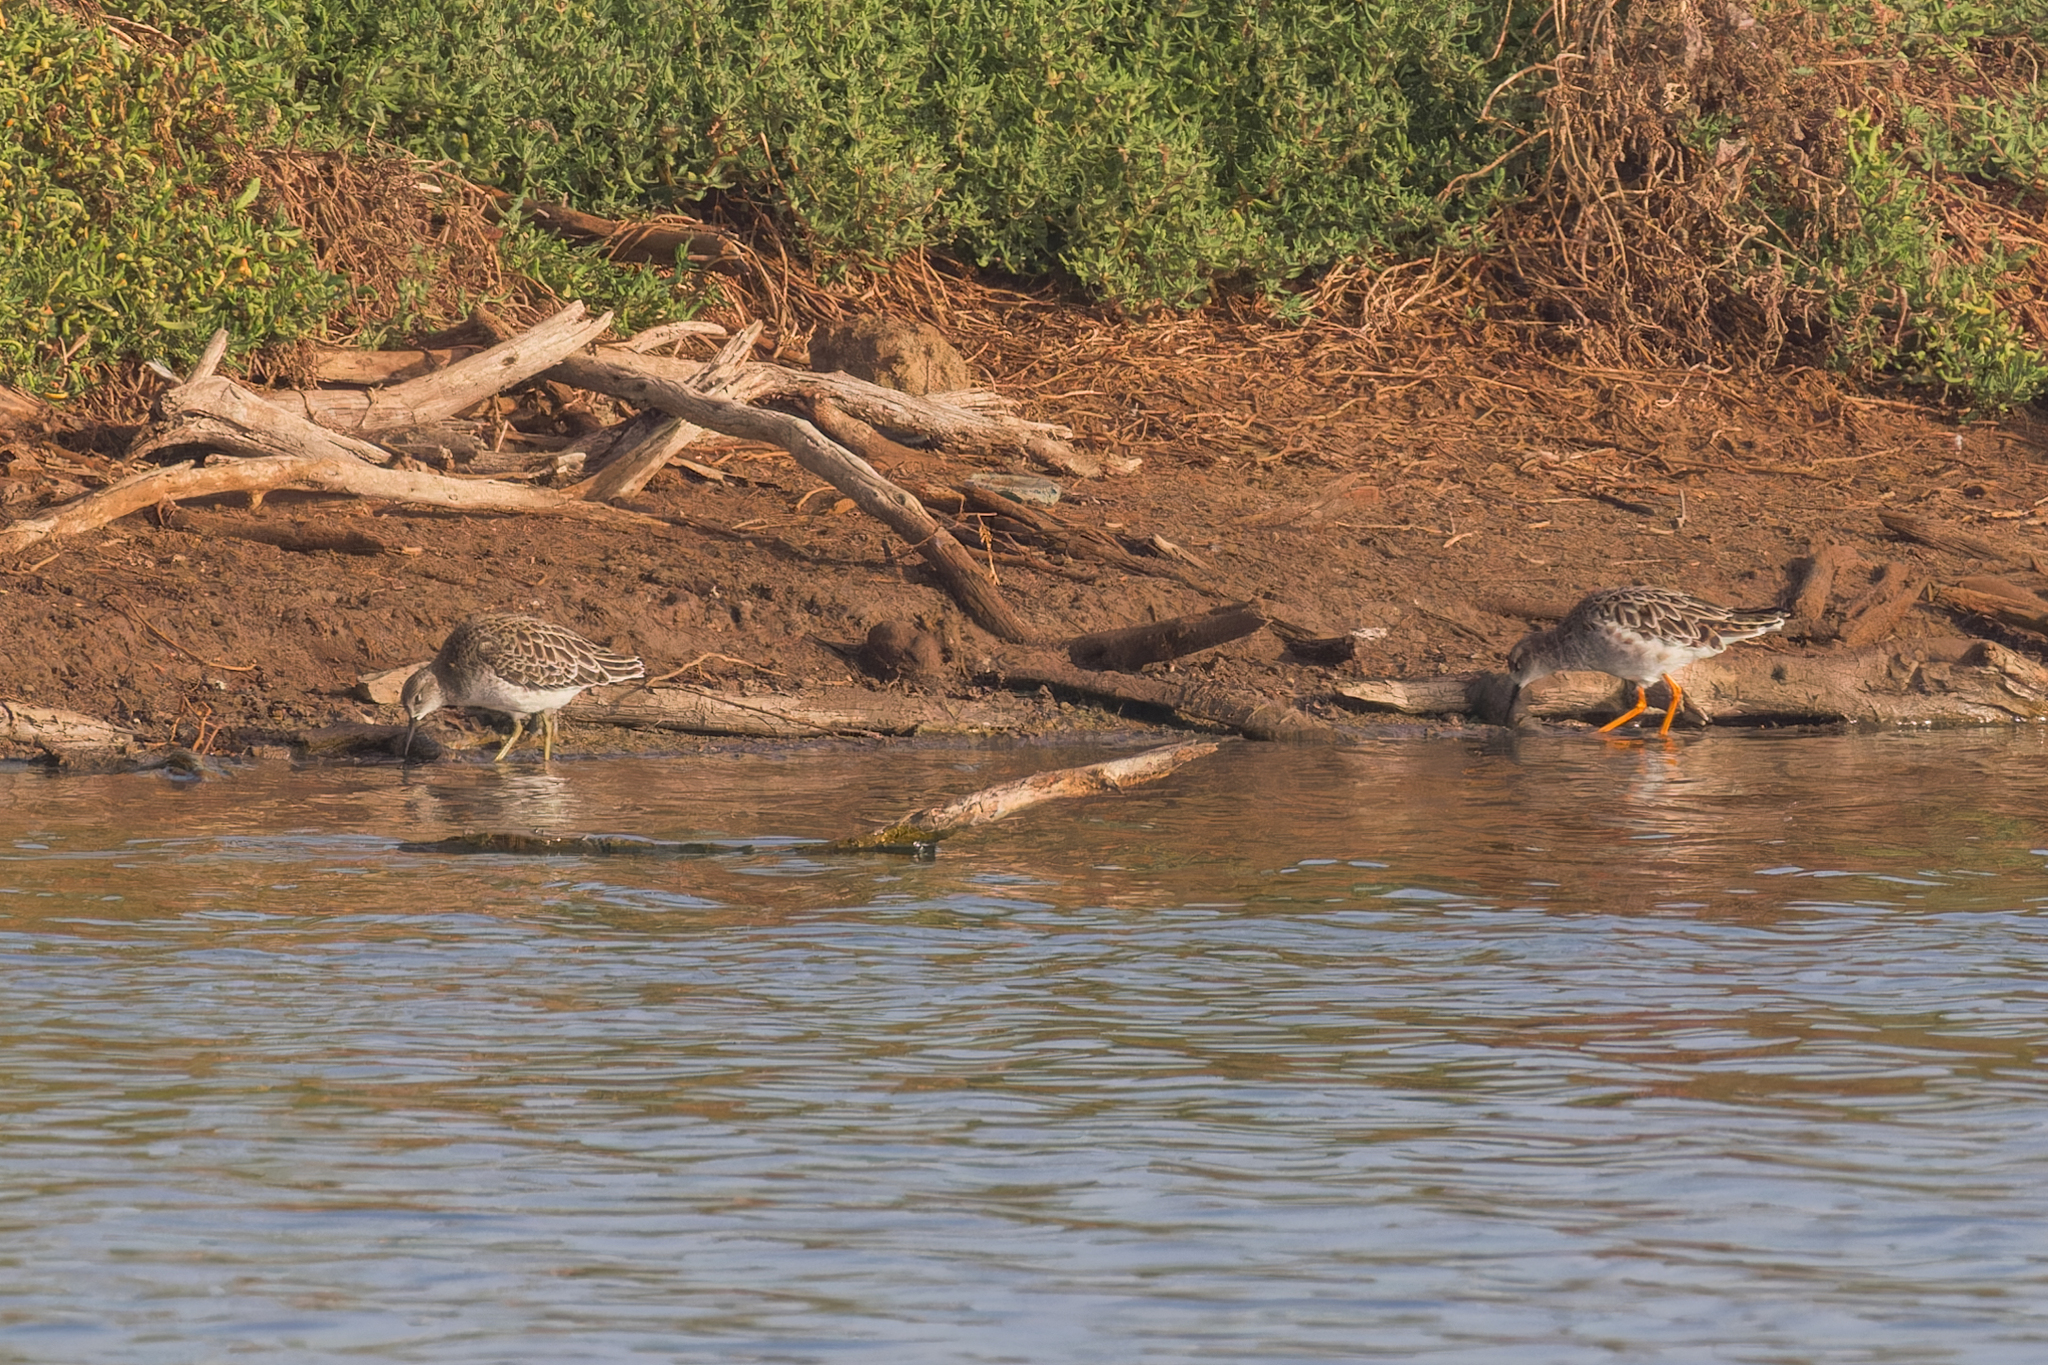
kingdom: Animalia
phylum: Chordata
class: Aves
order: Charadriiformes
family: Scolopacidae
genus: Calidris
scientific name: Calidris pugnax
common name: Ruff
